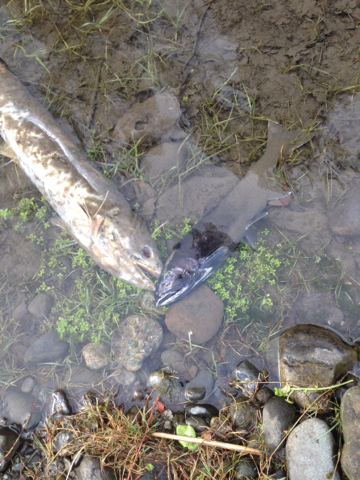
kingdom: Animalia
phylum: Chordata
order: Salmoniformes
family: Salmonidae
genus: Oncorhynchus
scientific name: Oncorhynchus keta
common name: Chum salmon
